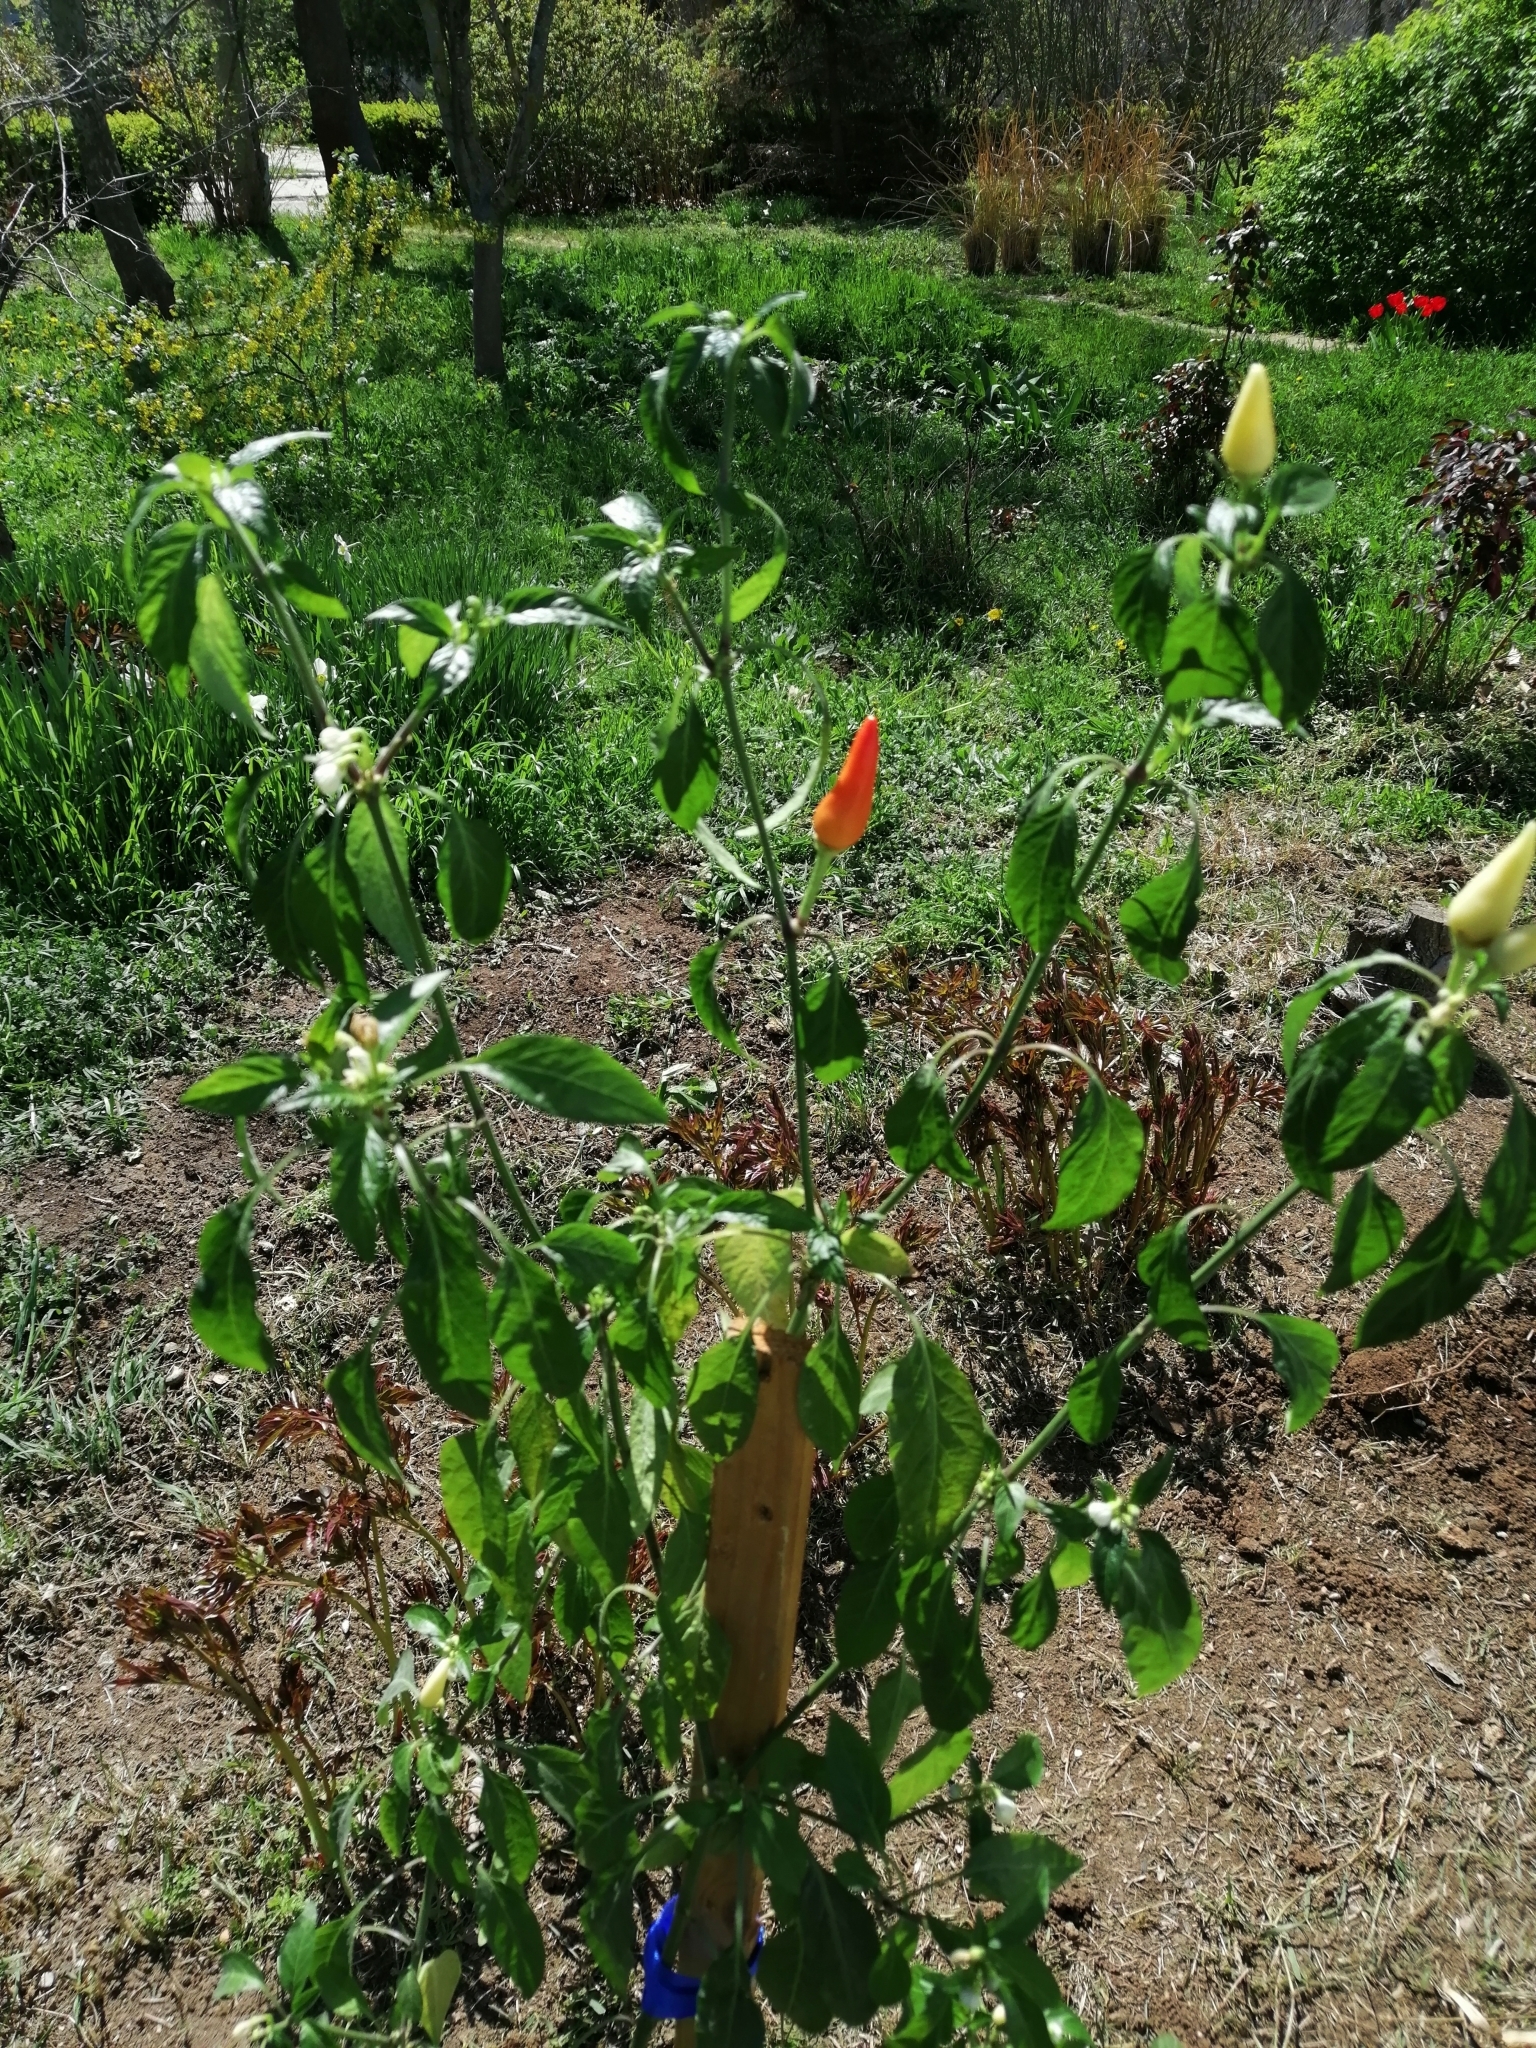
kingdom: Plantae
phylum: Tracheophyta
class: Magnoliopsida
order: Solanales
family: Solanaceae
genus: Capsicum
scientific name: Capsicum annuum
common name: Sweet pepper
